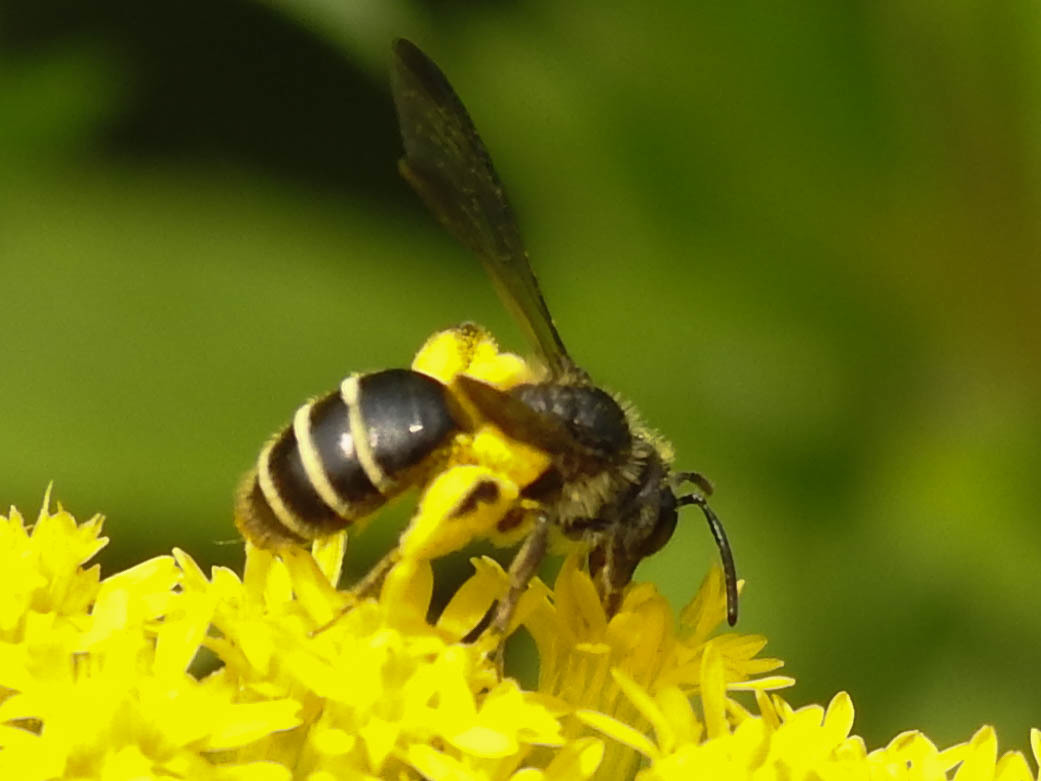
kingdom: Animalia
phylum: Arthropoda
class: Insecta
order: Hymenoptera
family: Andrenidae
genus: Andrena
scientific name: Andrena nubecula
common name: Cloudy-winged mining bee
